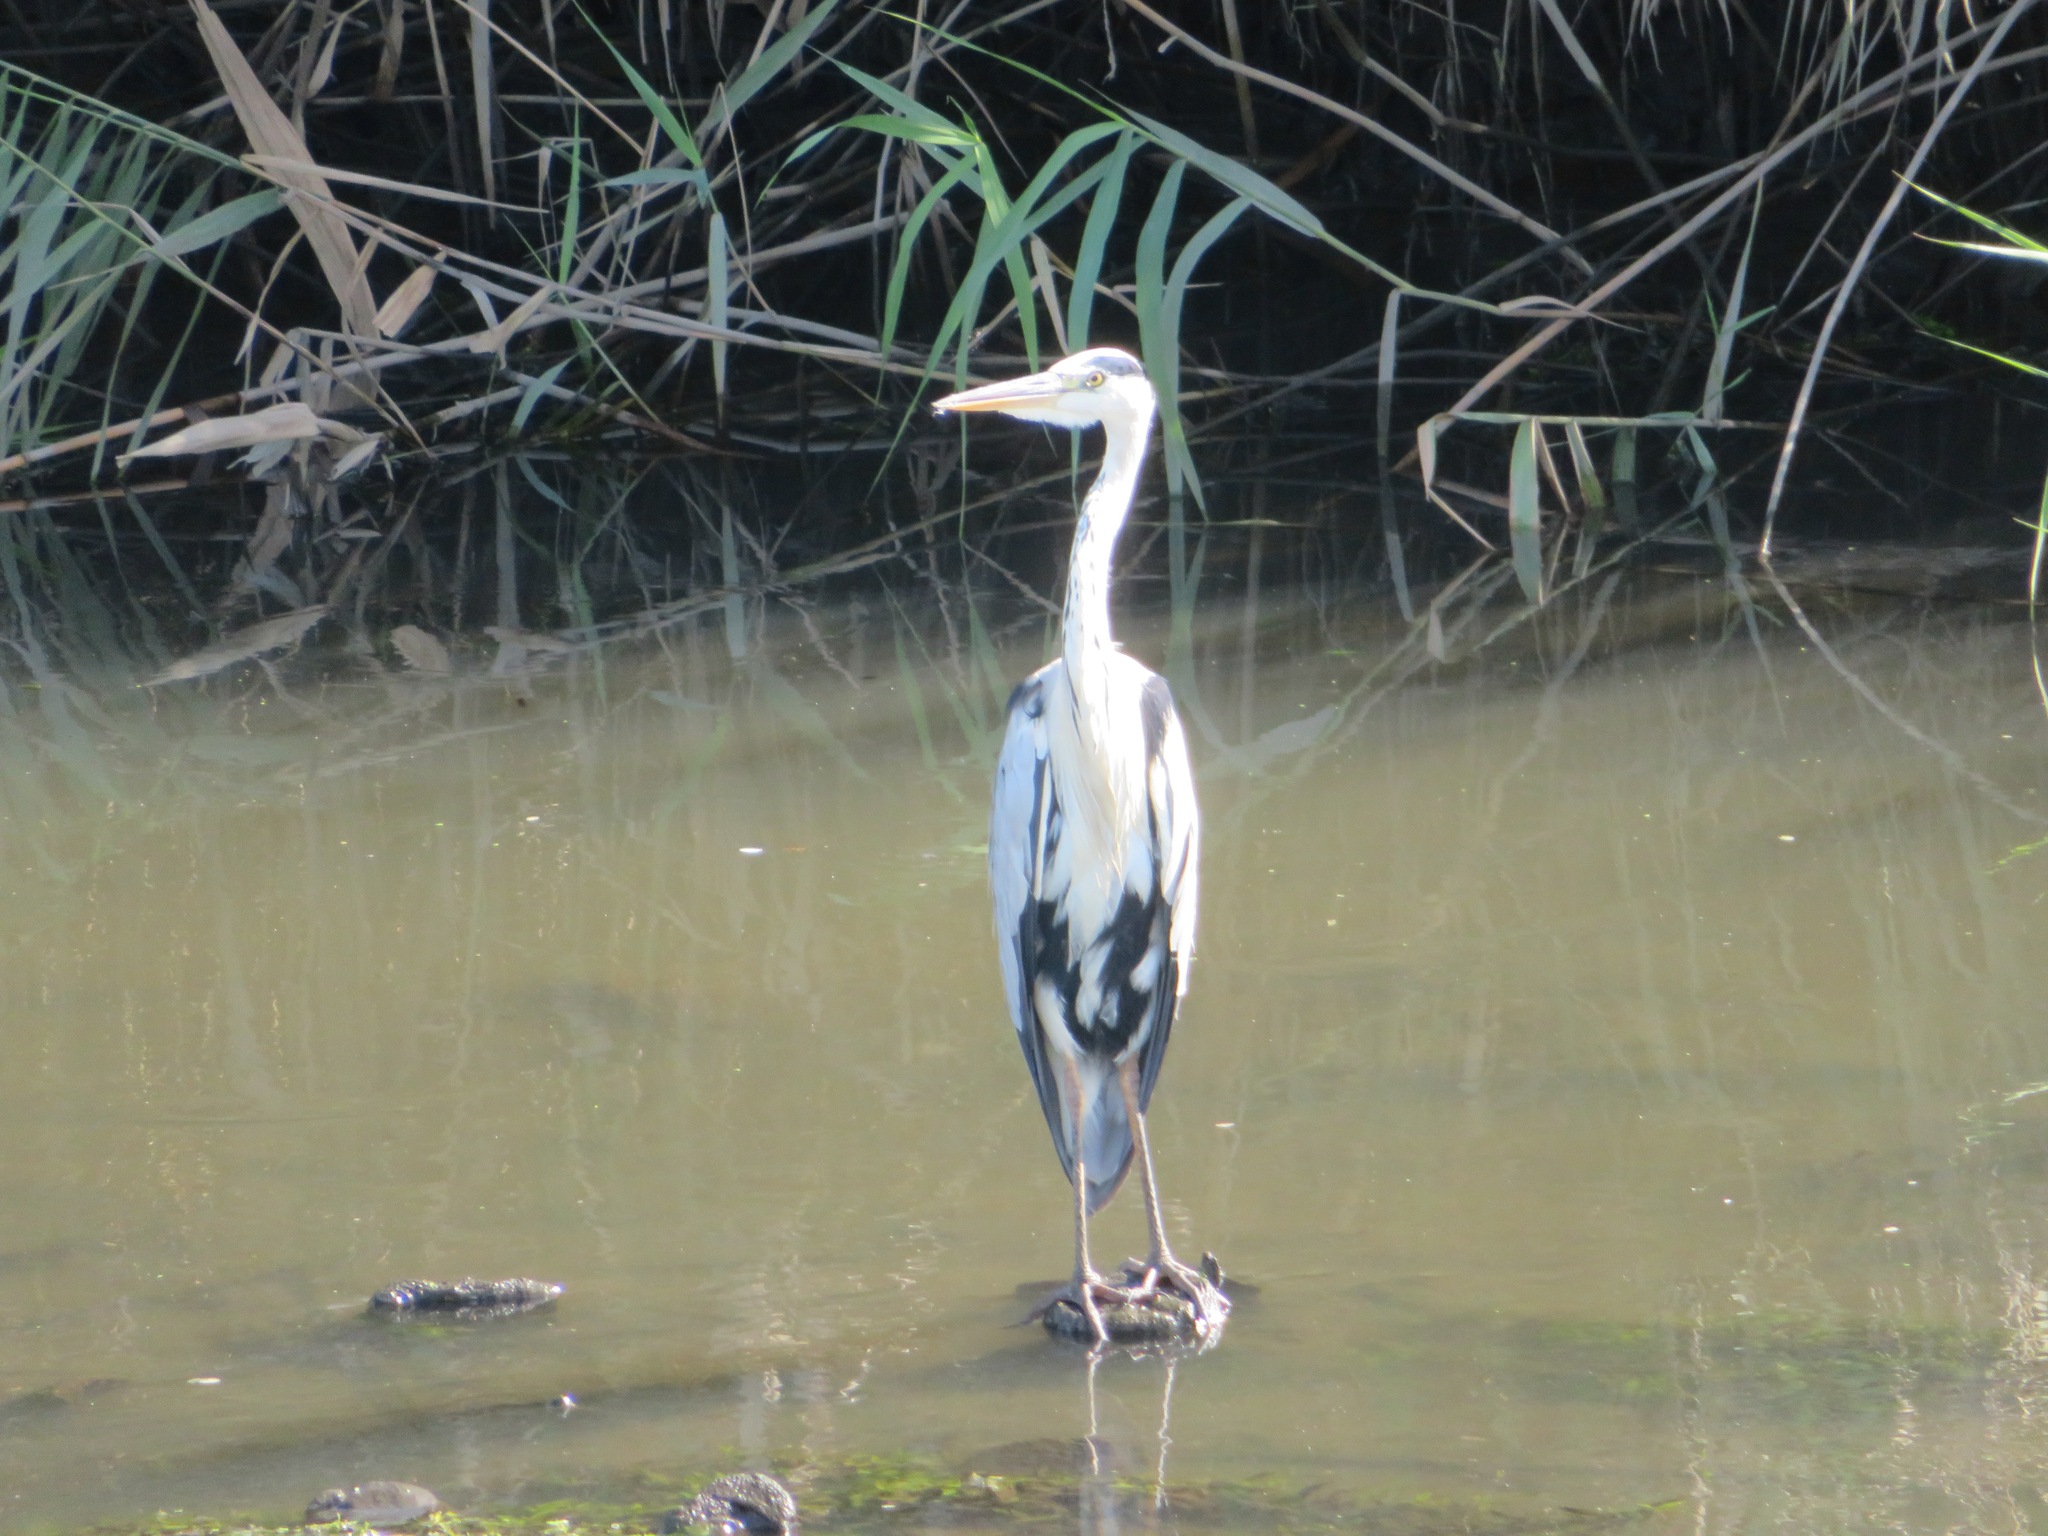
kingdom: Animalia
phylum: Chordata
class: Aves
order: Pelecaniformes
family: Ardeidae
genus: Ardea
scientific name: Ardea cinerea
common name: Grey heron
